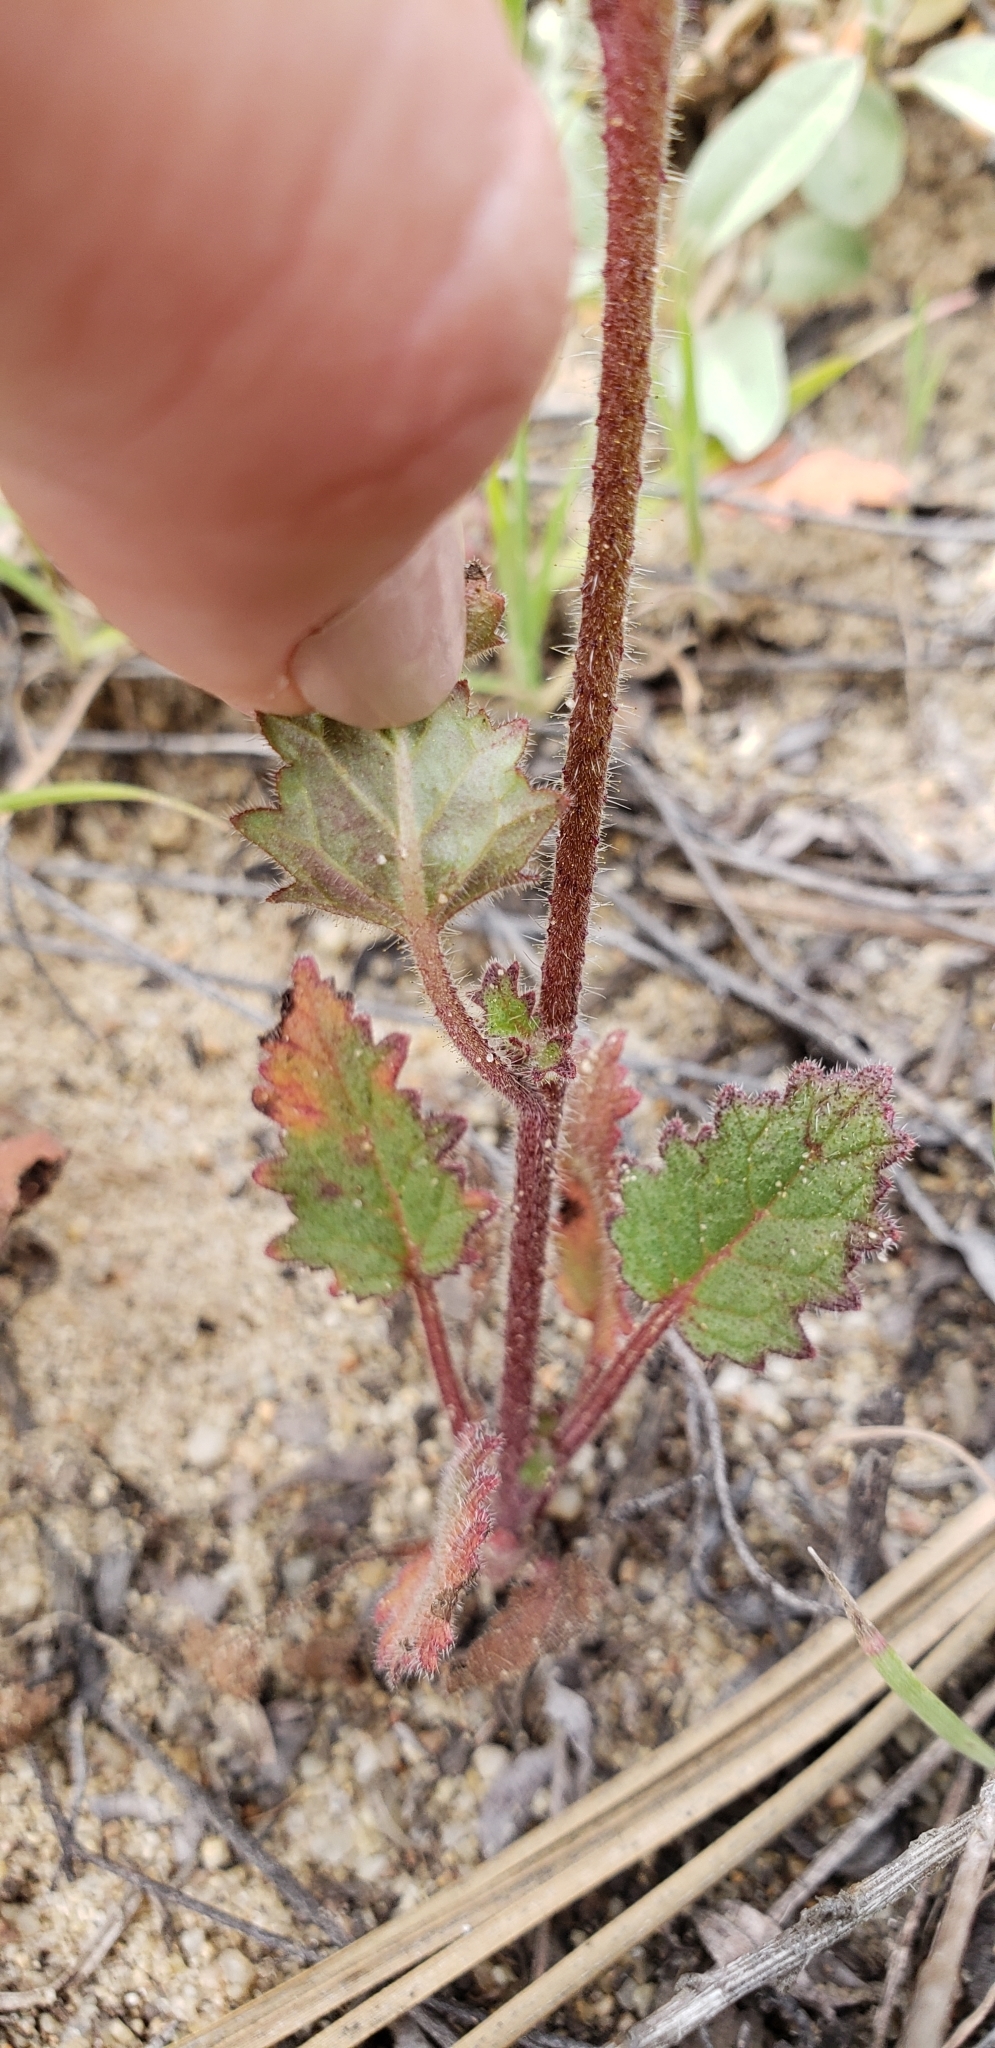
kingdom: Plantae
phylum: Tracheophyta
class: Magnoliopsida
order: Boraginales
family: Hydrophyllaceae
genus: Phacelia
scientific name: Phacelia parryi
